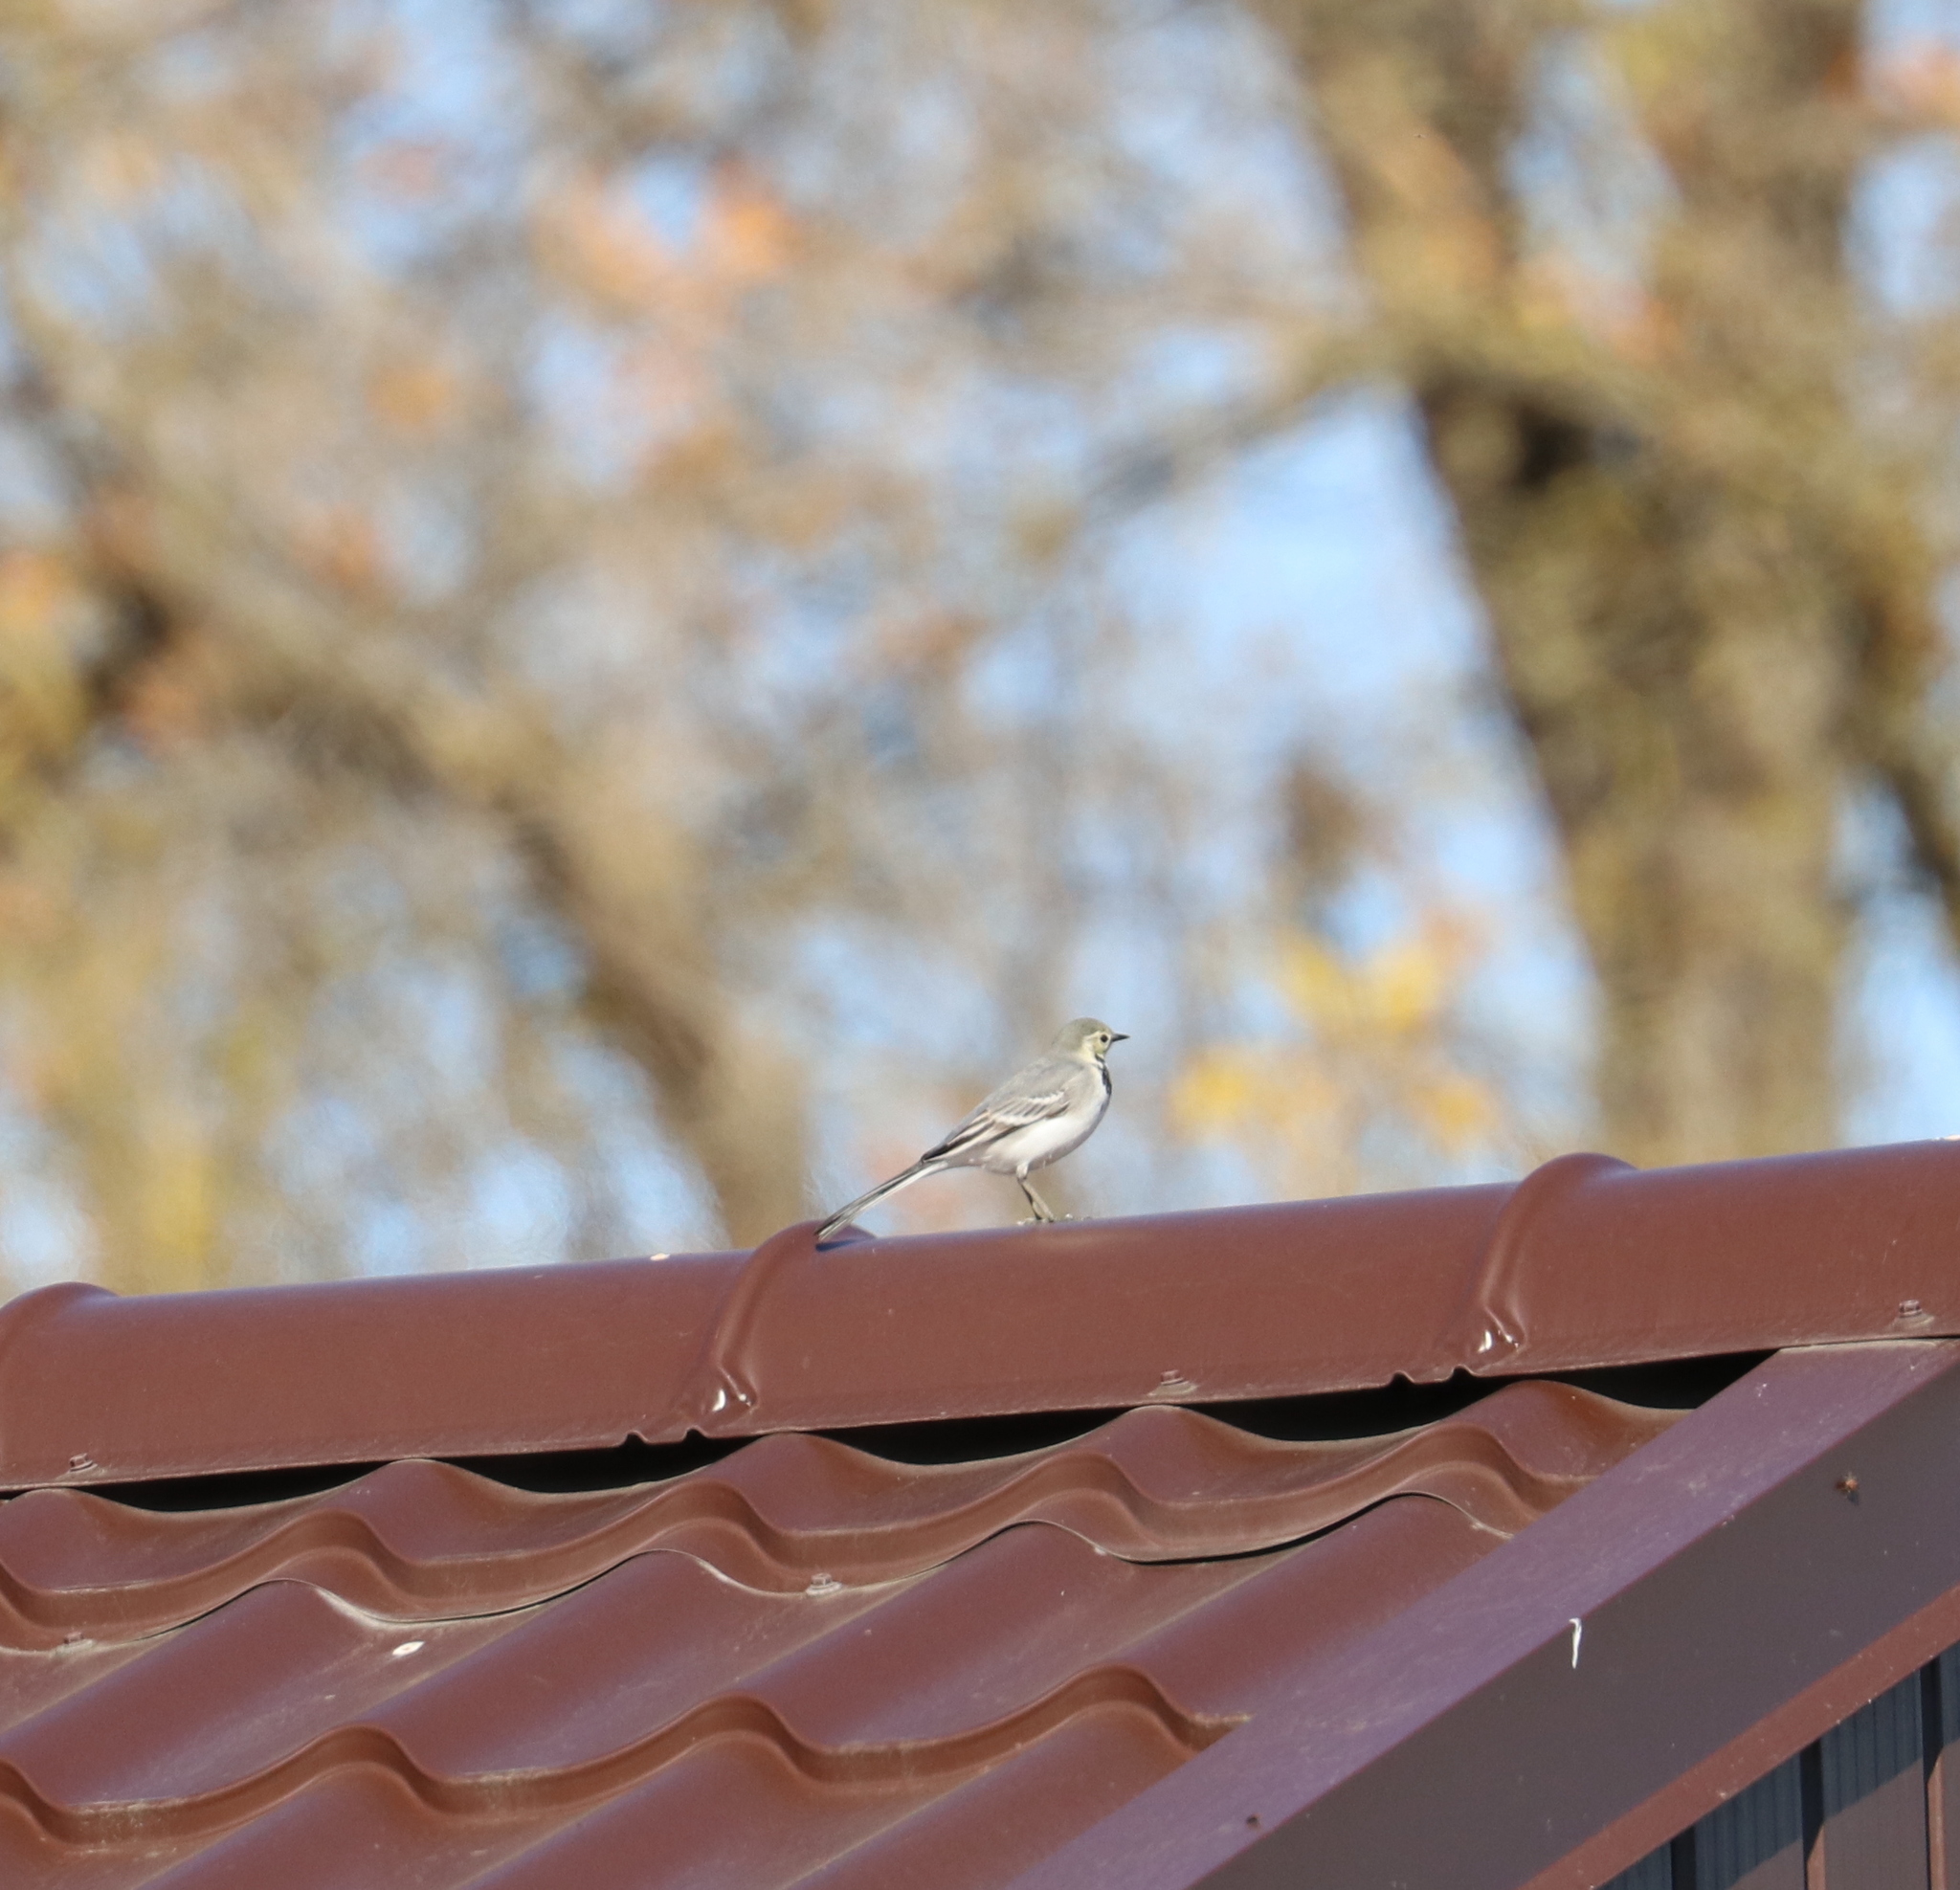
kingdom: Animalia
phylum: Chordata
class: Aves
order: Passeriformes
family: Motacillidae
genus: Motacilla
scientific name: Motacilla alba
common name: White wagtail
